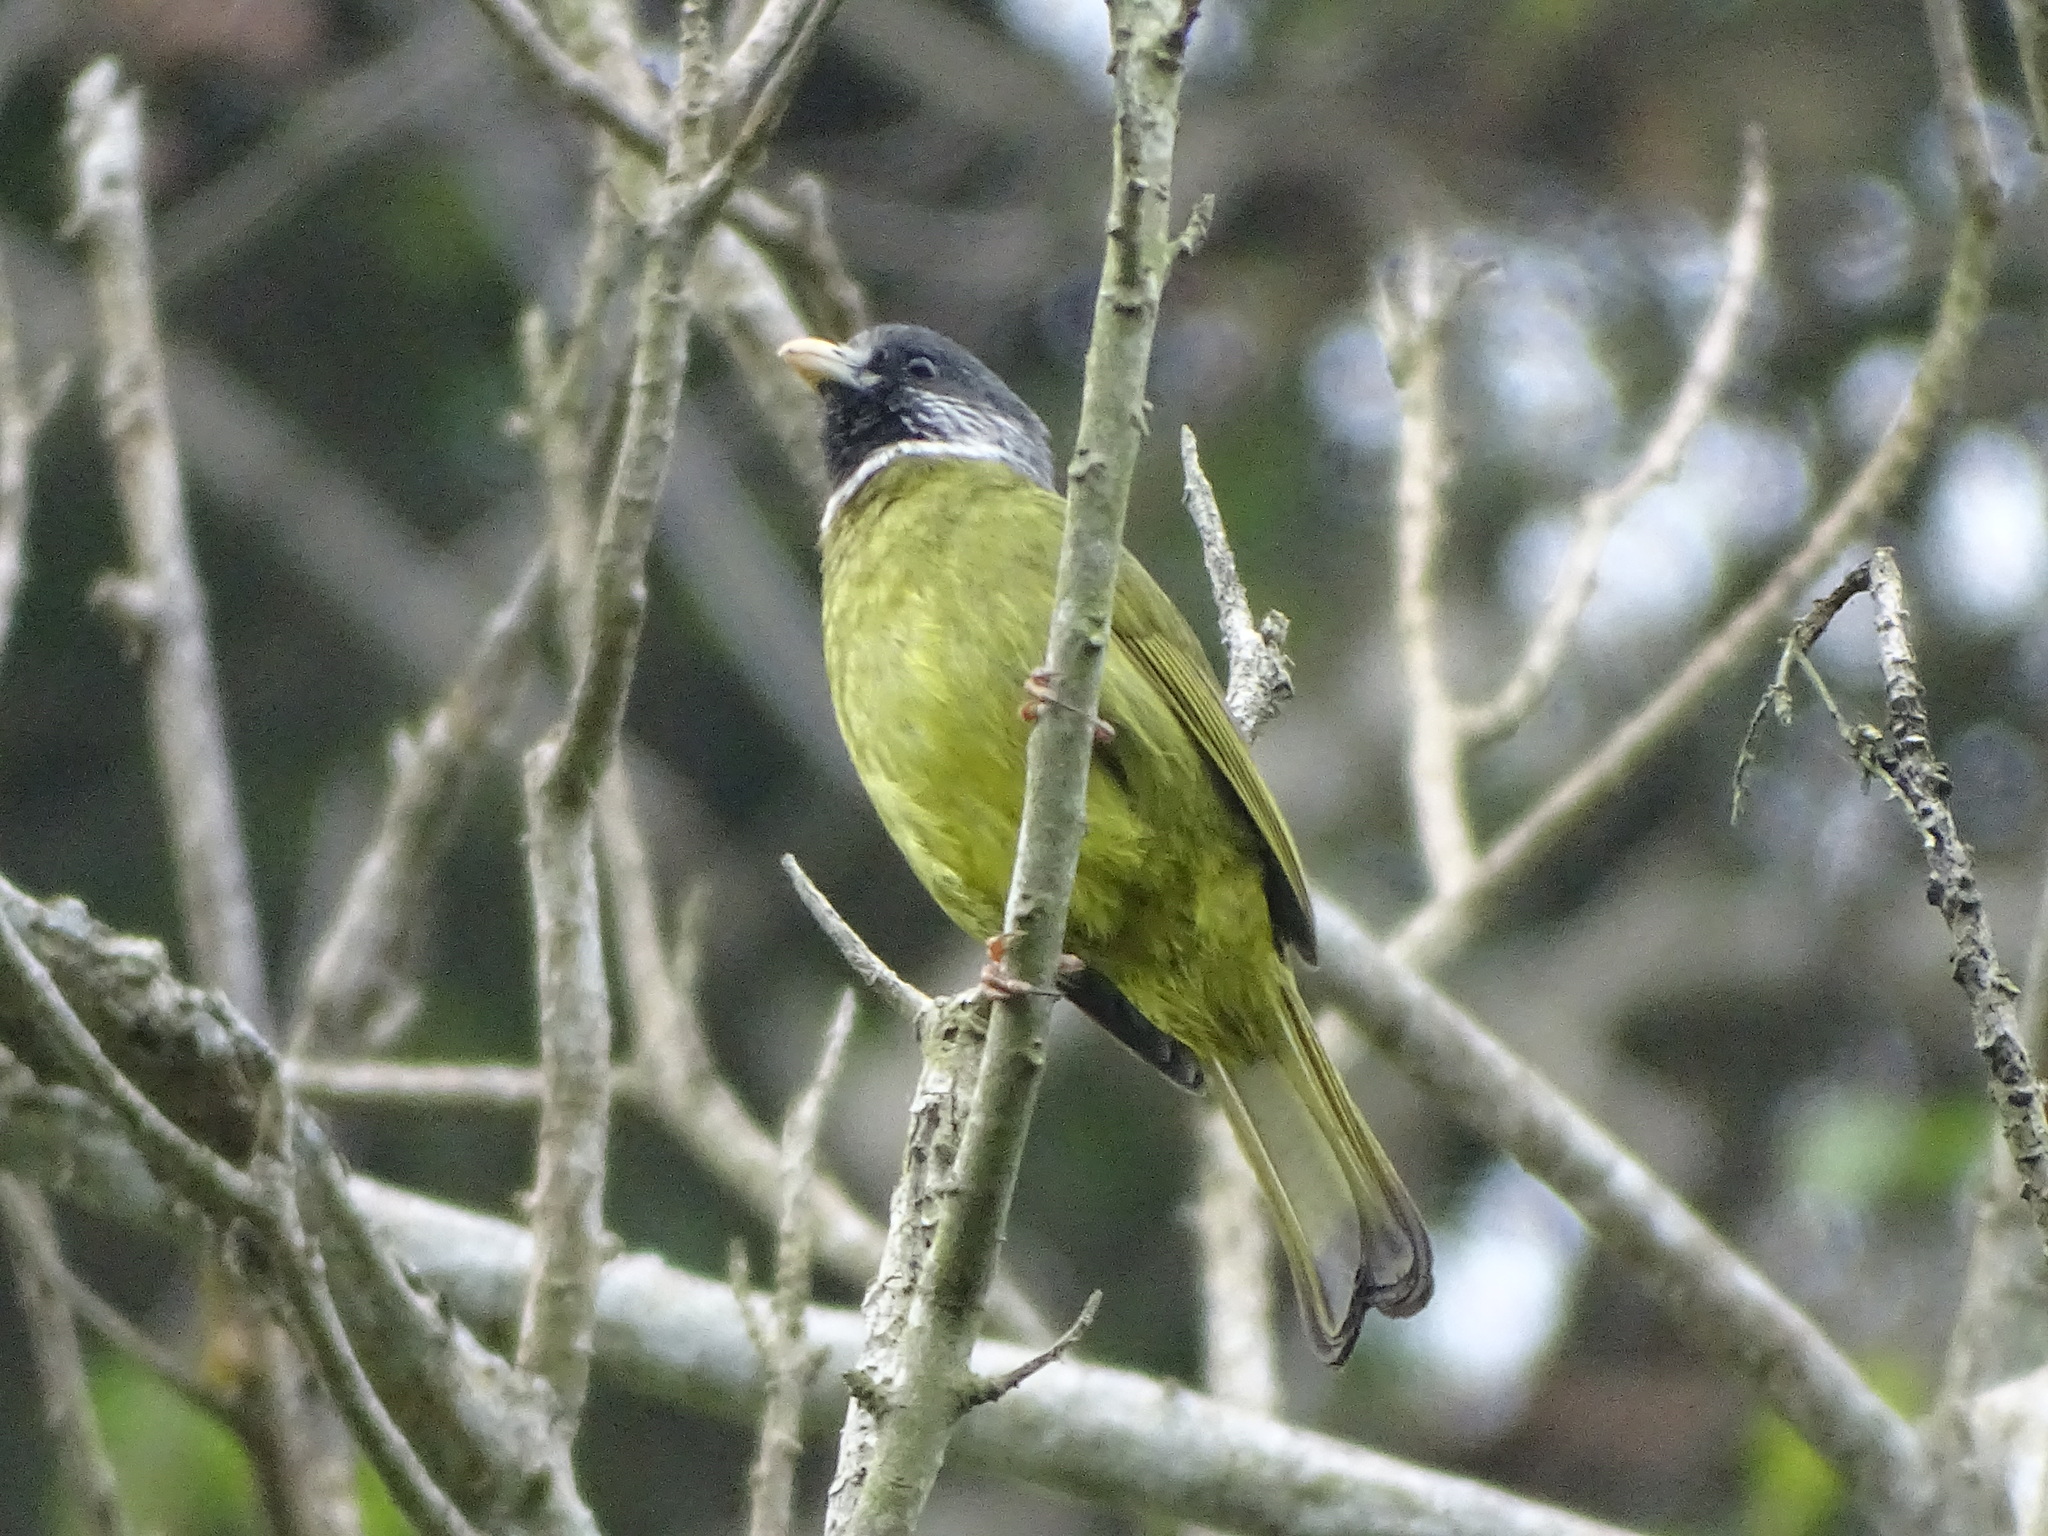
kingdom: Animalia
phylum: Chordata
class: Aves
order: Passeriformes
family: Pycnonotidae
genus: Spizixos
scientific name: Spizixos semitorques
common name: Collared finchbill
